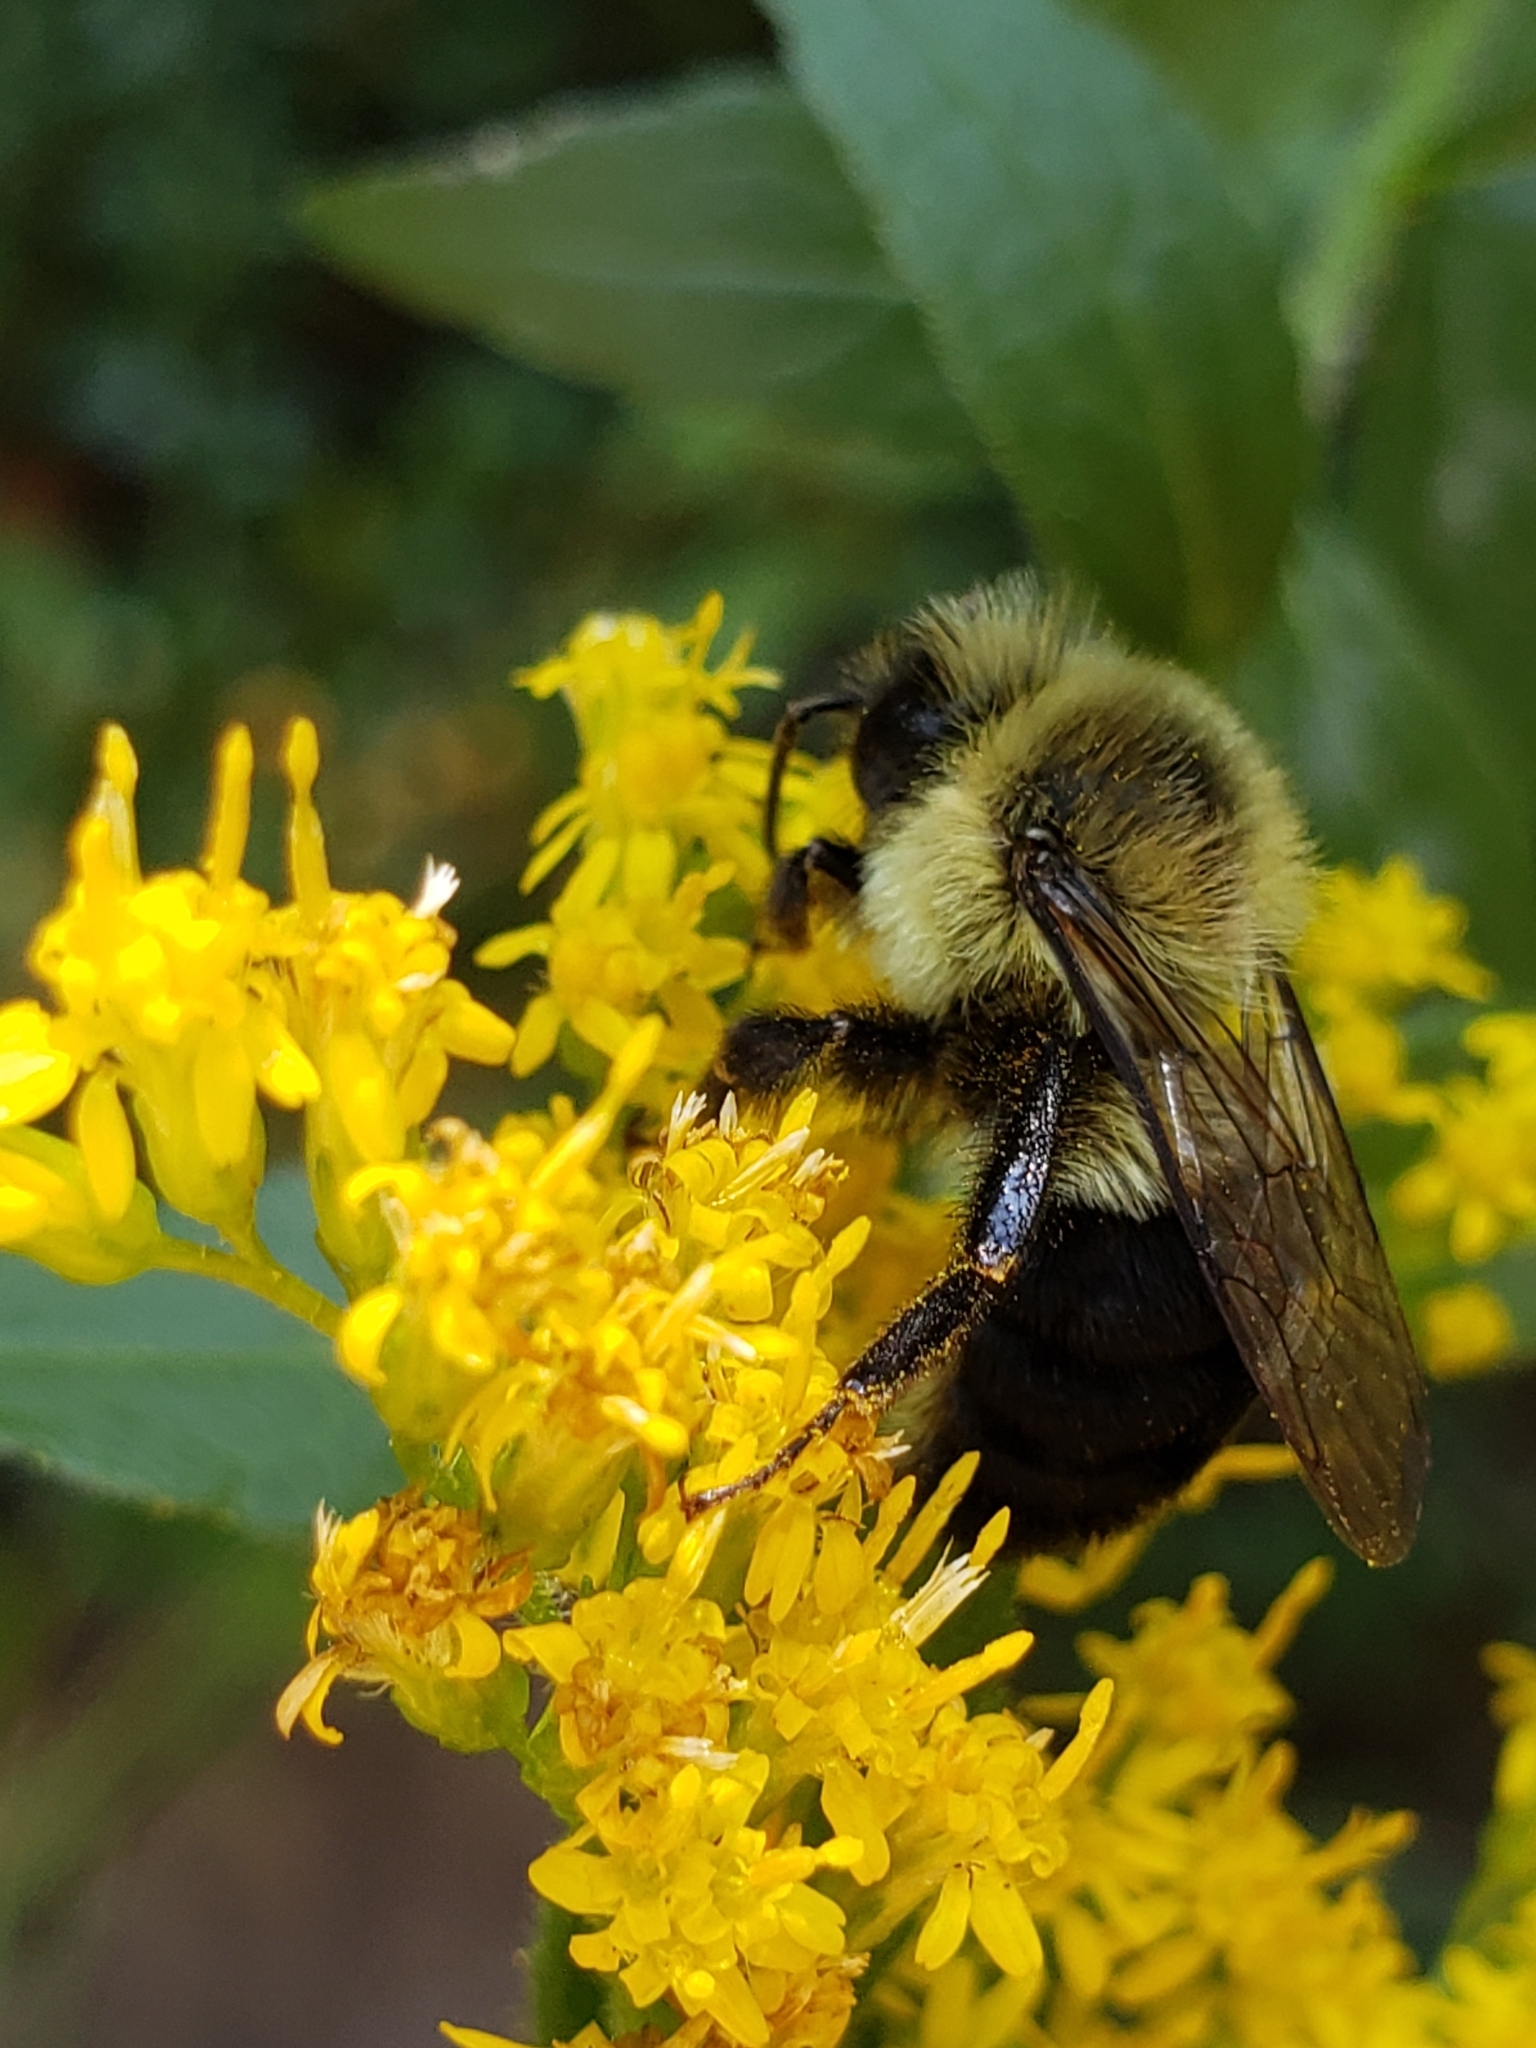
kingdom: Animalia
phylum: Arthropoda
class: Insecta
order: Hymenoptera
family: Apidae
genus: Bombus
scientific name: Bombus impatiens
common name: Common eastern bumble bee
